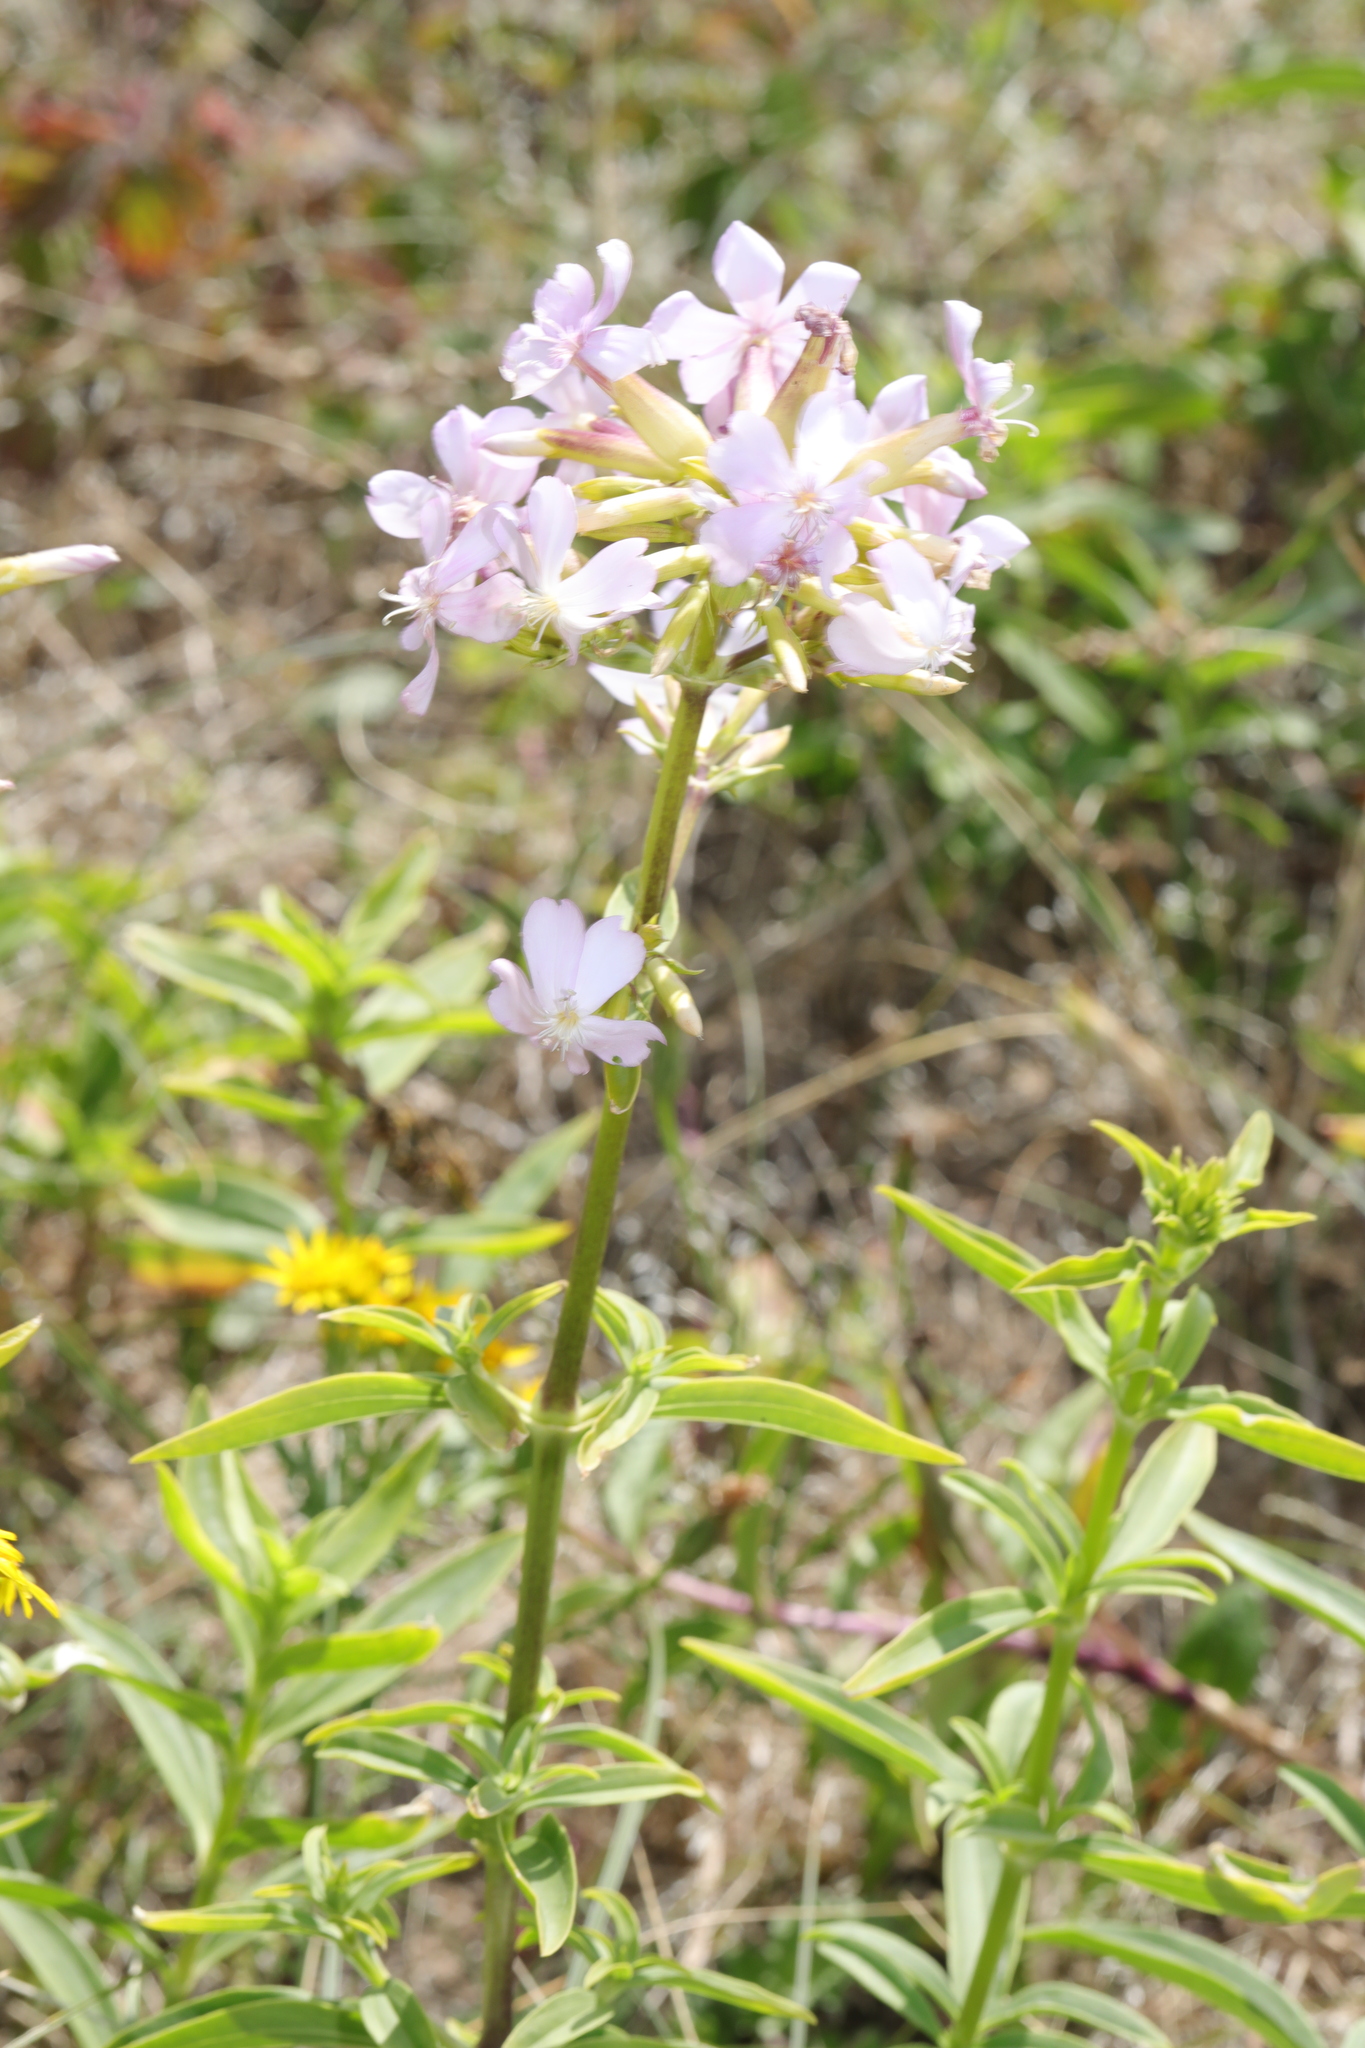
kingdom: Plantae
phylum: Tracheophyta
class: Magnoliopsida
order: Caryophyllales
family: Caryophyllaceae
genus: Saponaria
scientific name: Saponaria officinalis
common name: Soapwort
